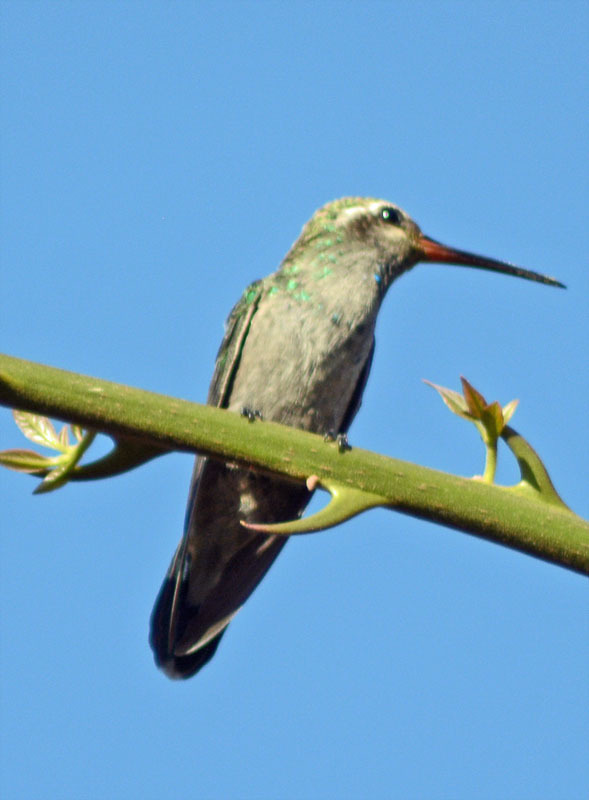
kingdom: Animalia
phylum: Chordata
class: Aves
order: Apodiformes
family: Trochilidae
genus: Cynanthus
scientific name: Cynanthus latirostris
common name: Broad-billed hummingbird
